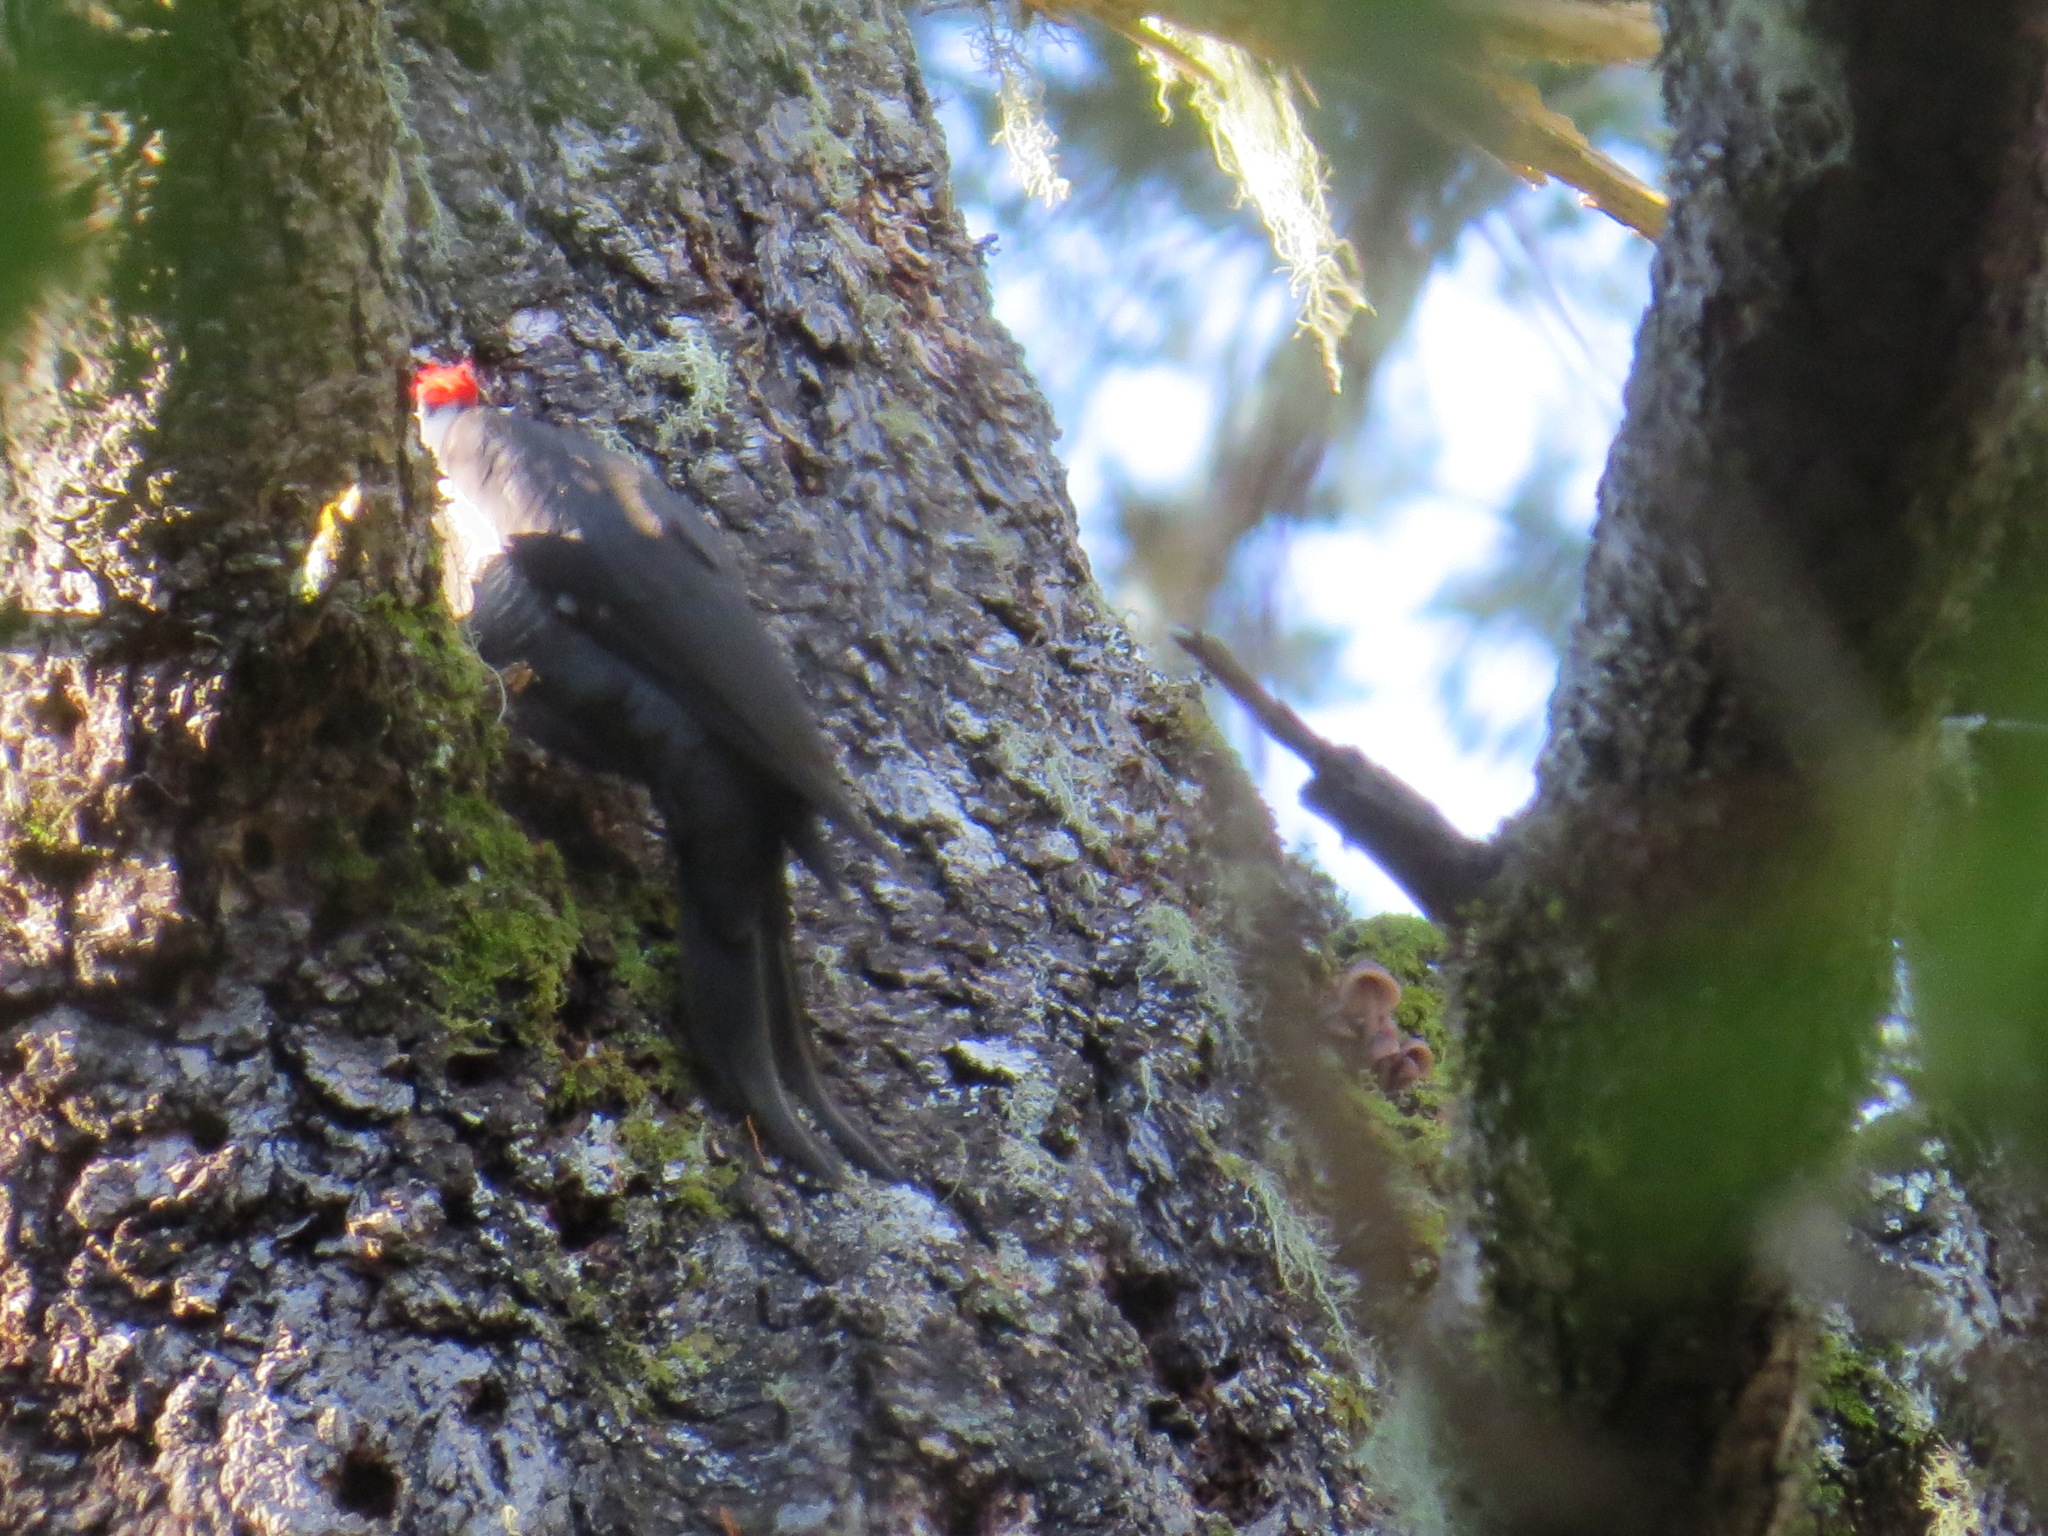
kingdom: Animalia
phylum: Chordata
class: Aves
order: Piciformes
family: Picidae
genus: Dryocopus
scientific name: Dryocopus pileatus
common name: Pileated woodpecker
